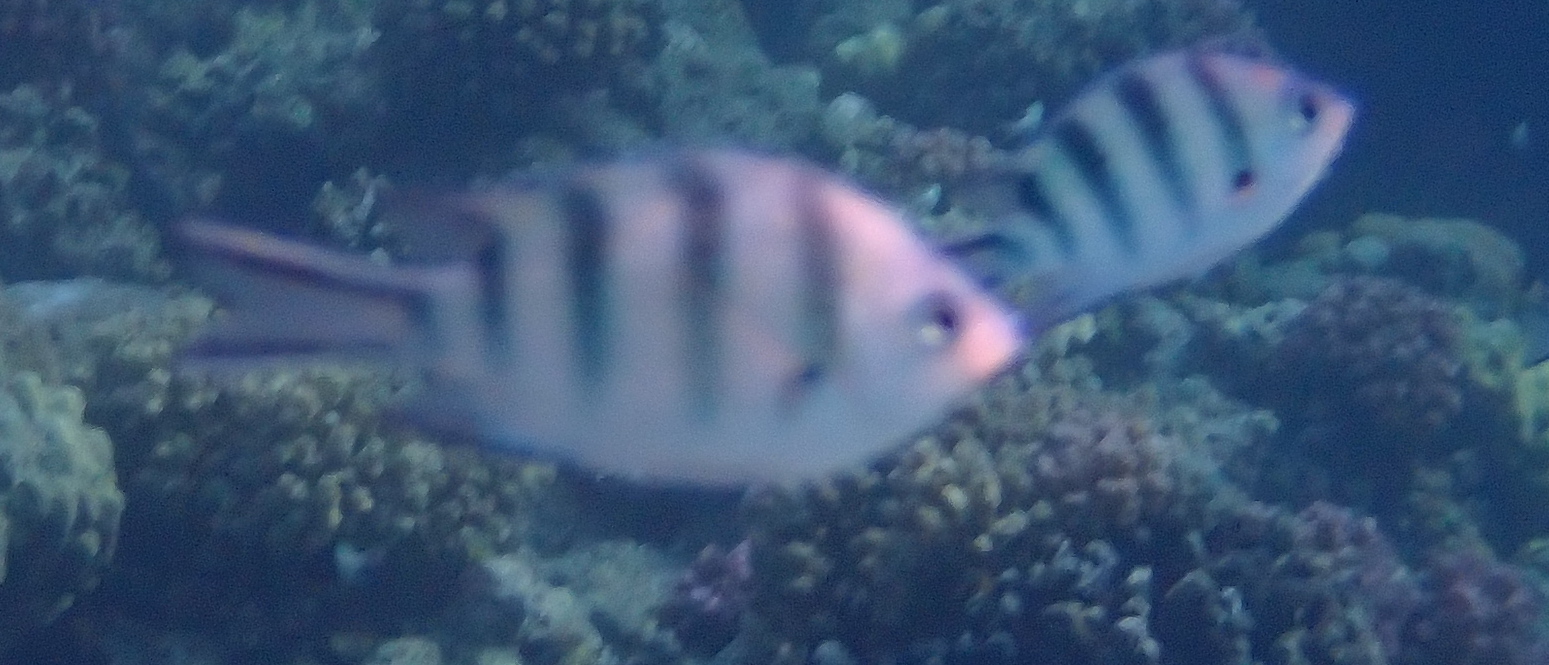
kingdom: Animalia
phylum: Chordata
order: Perciformes
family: Pomacentridae
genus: Abudefduf
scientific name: Abudefduf sexfasciatus
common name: Scissortail sergeant
